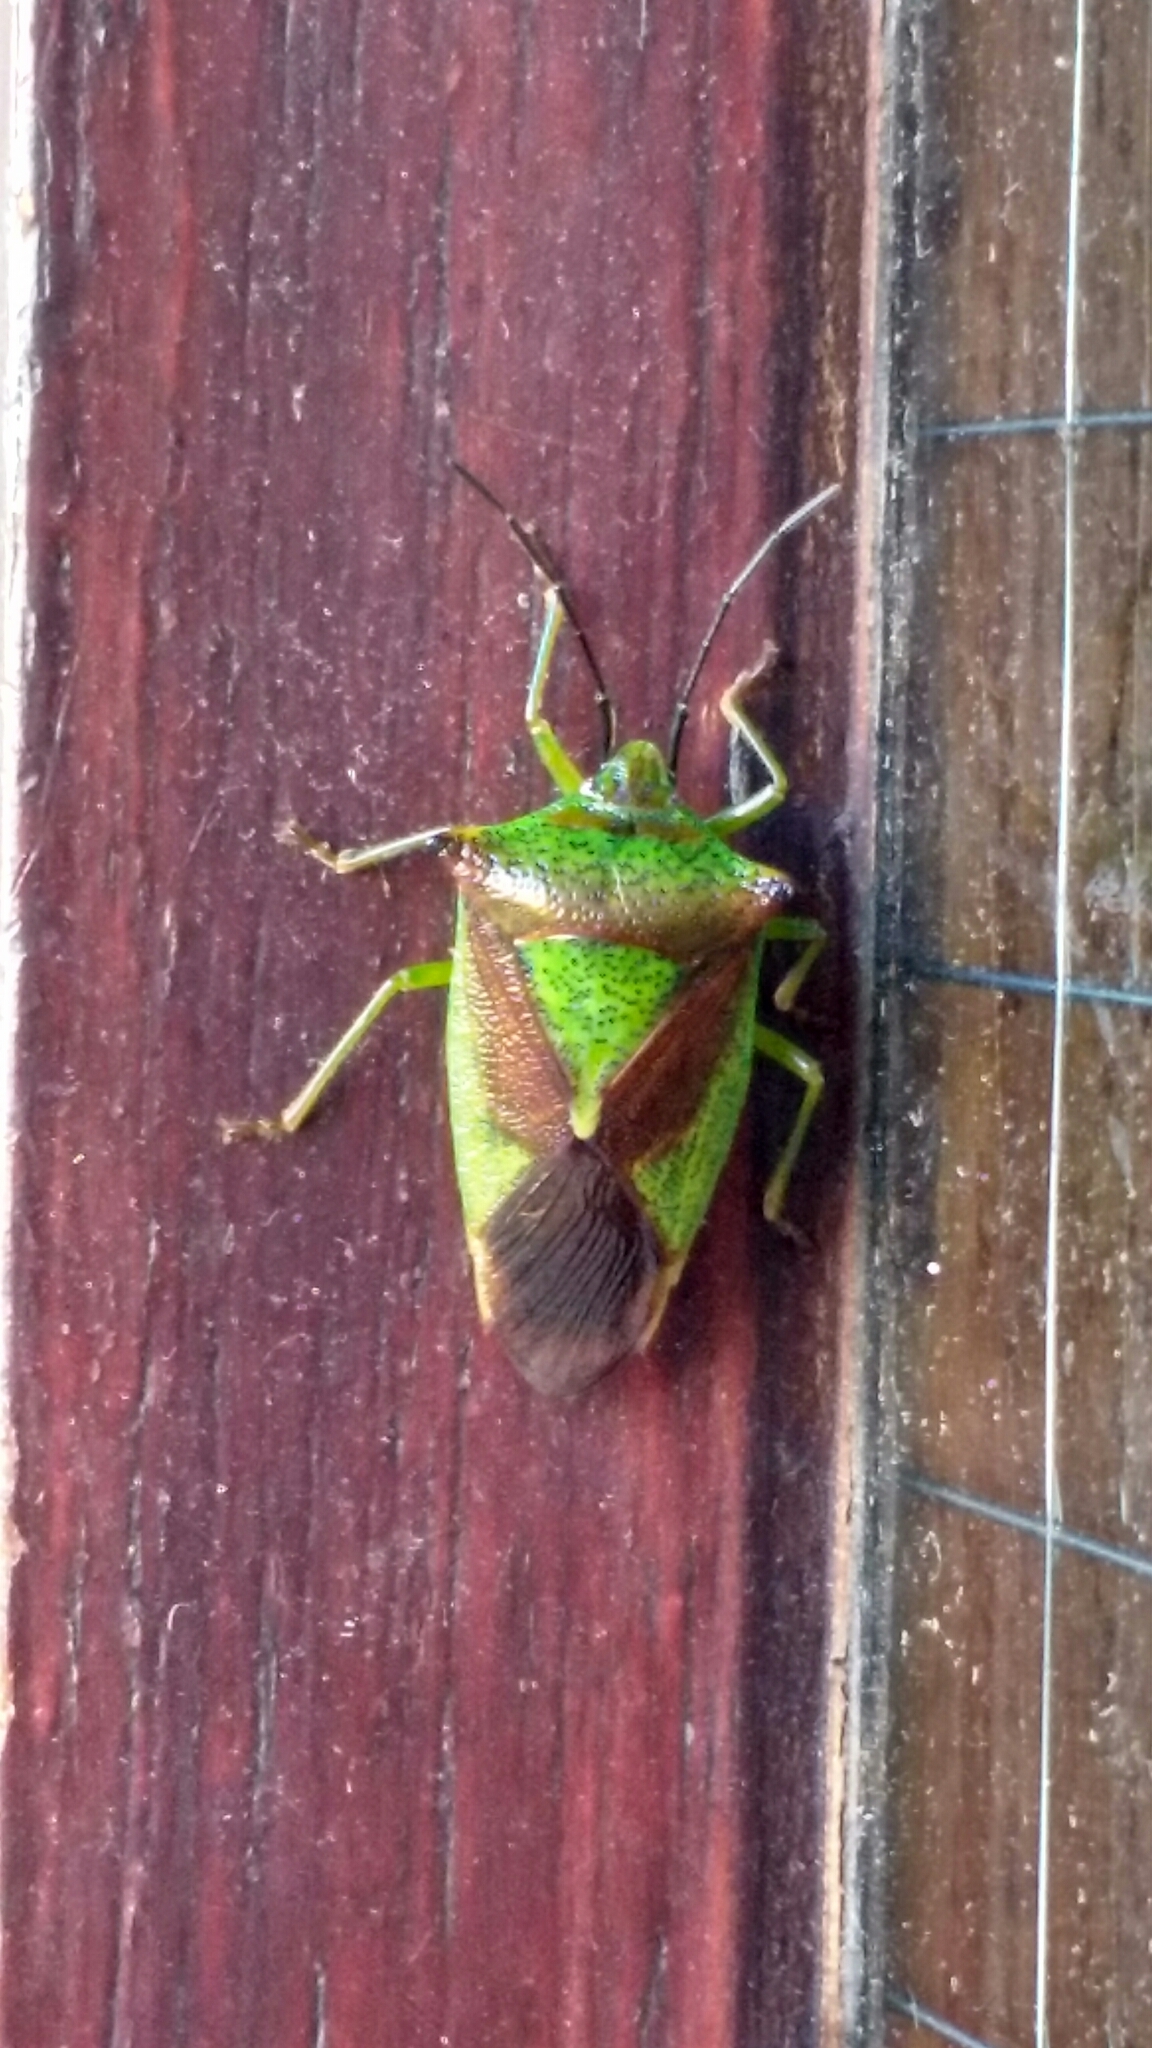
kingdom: Animalia
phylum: Arthropoda
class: Insecta
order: Hemiptera
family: Acanthosomatidae
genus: Acanthosoma
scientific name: Acanthosoma haemorrhoidale
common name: Hawthorn shieldbug
